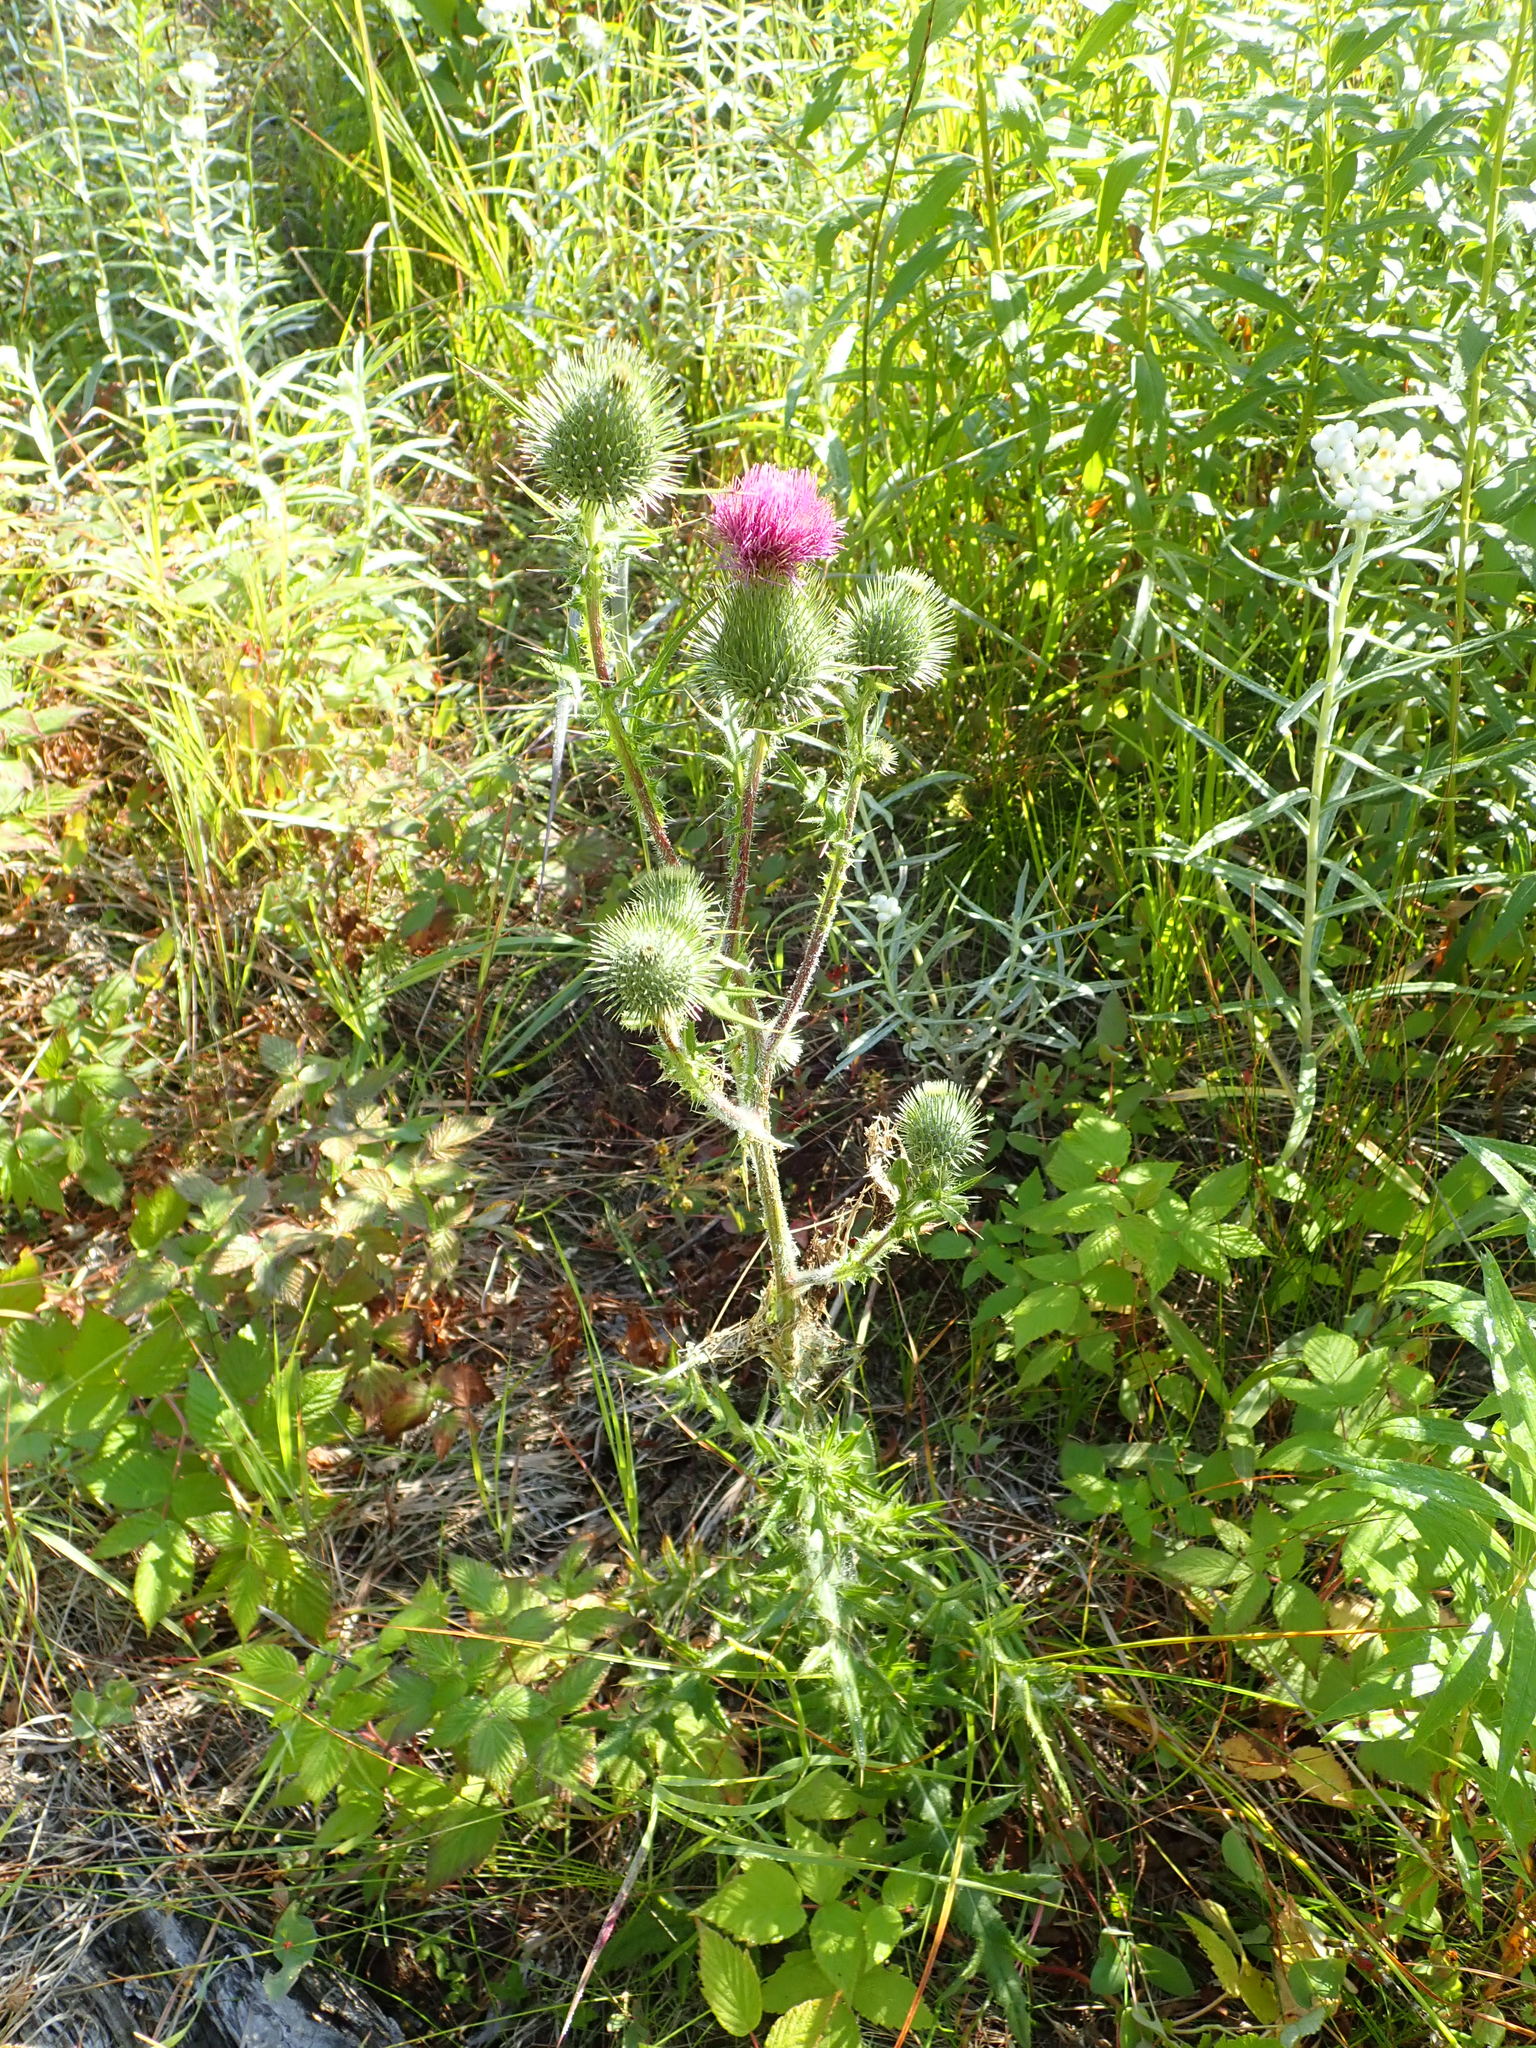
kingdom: Plantae
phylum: Tracheophyta
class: Magnoliopsida
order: Asterales
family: Asteraceae
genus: Cirsium
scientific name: Cirsium vulgare
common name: Bull thistle
